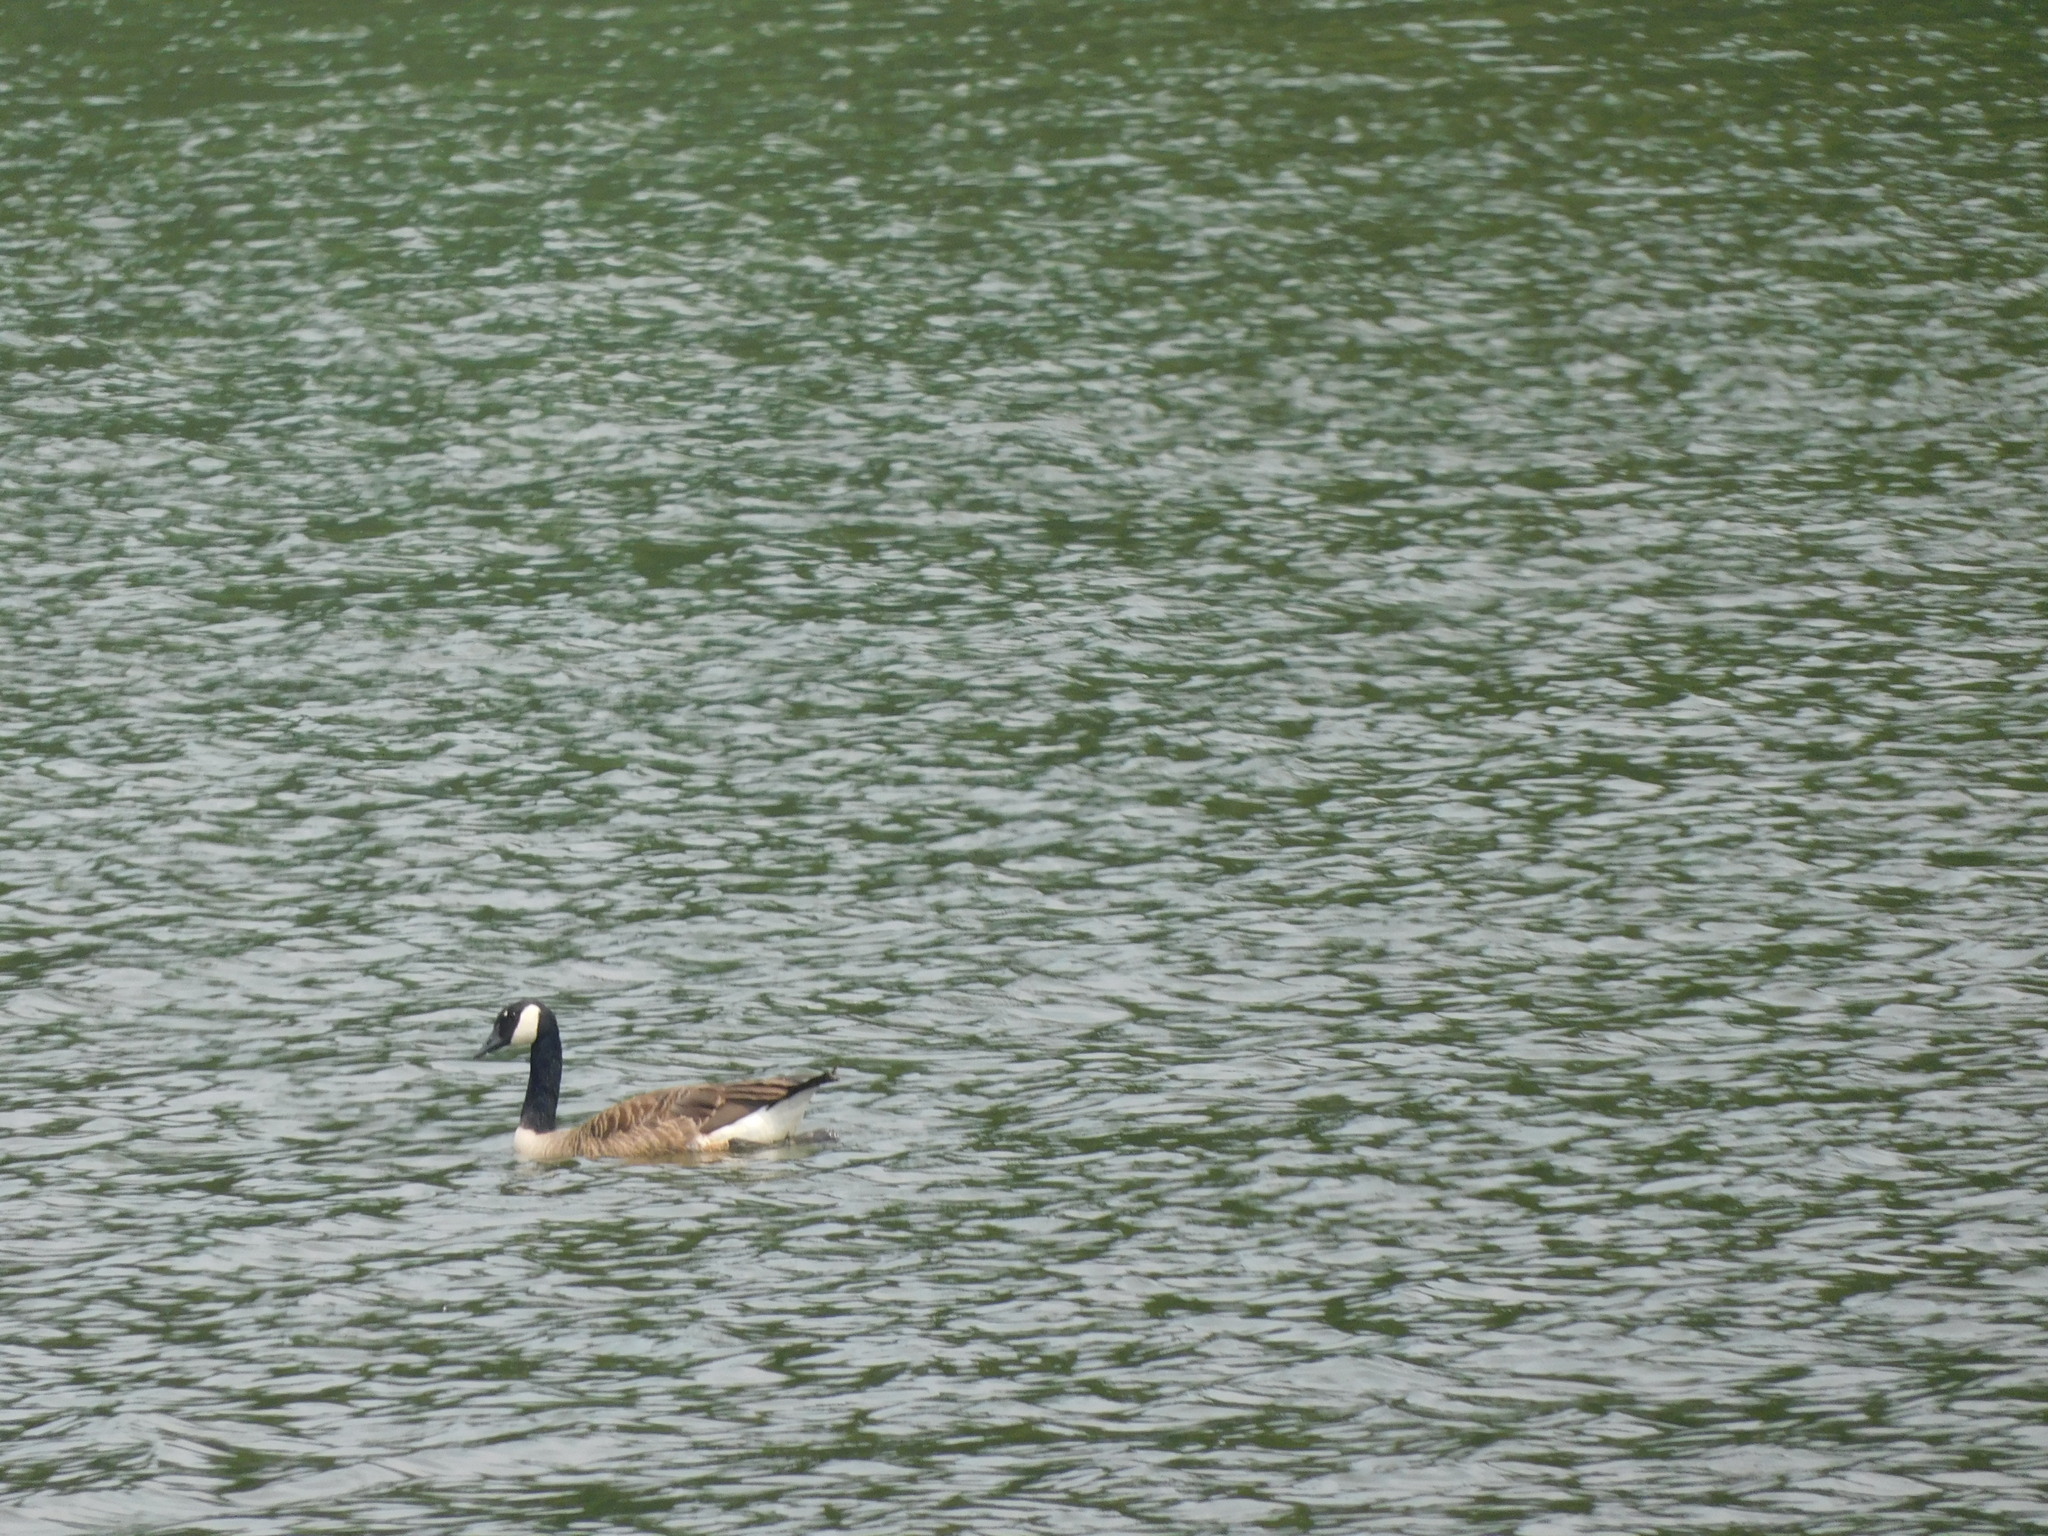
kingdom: Animalia
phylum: Chordata
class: Aves
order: Anseriformes
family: Anatidae
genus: Branta
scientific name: Branta canadensis
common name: Canada goose
